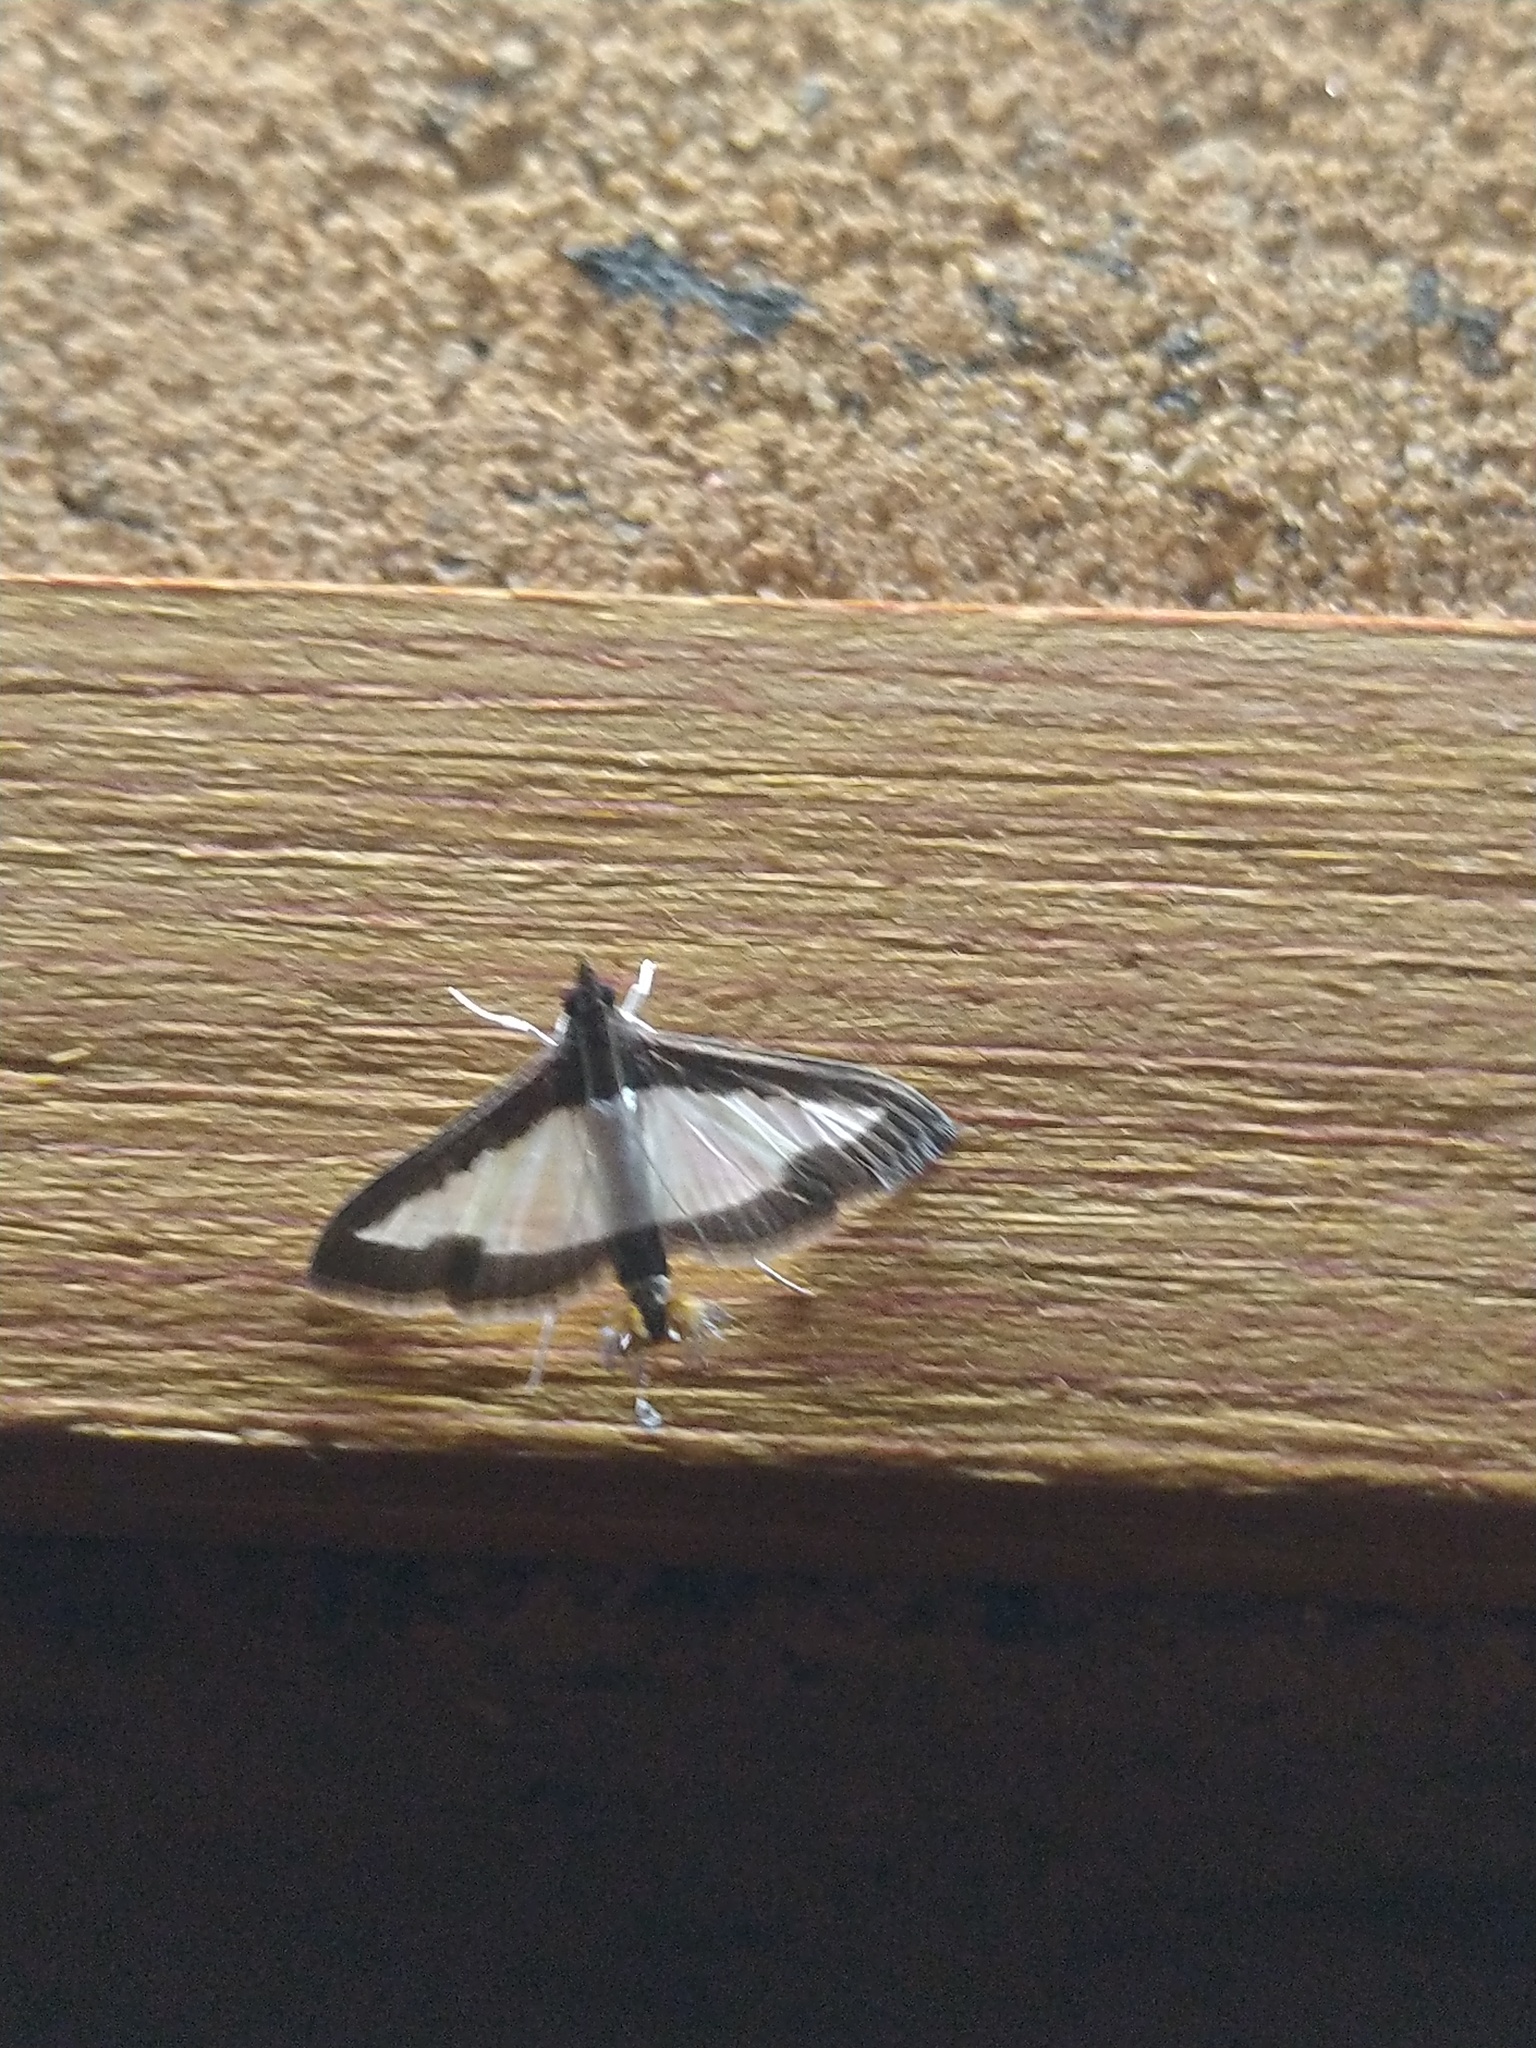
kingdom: Animalia
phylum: Arthropoda
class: Insecta
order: Lepidoptera
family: Crambidae
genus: Diaphania
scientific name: Diaphania indica
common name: Cucumber moth
